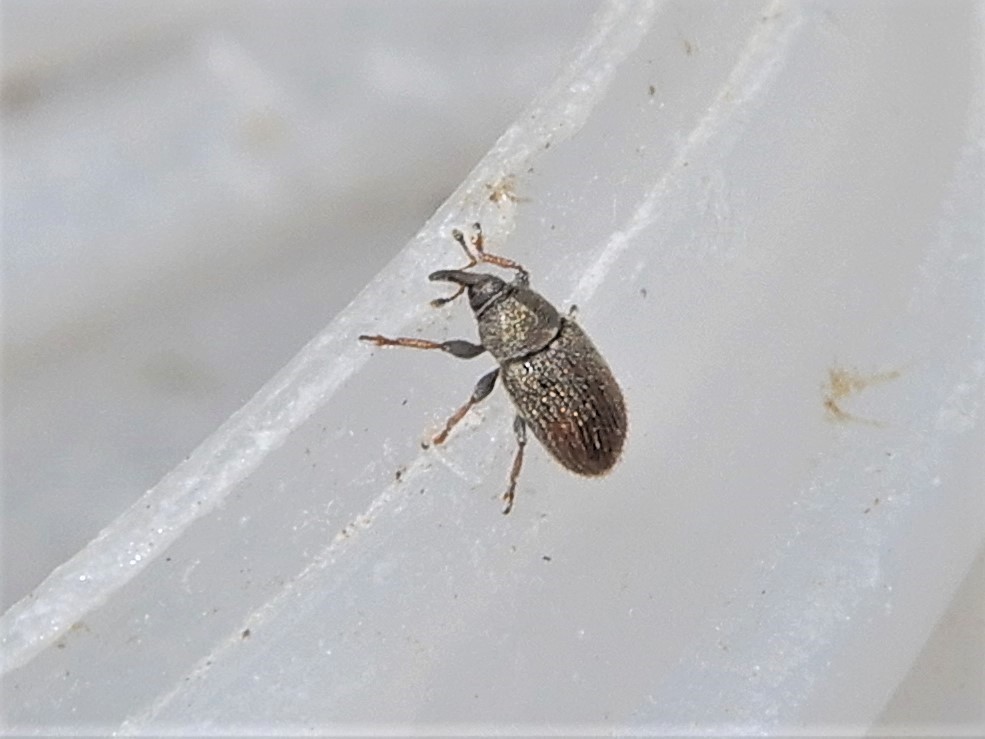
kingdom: Animalia
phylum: Arthropoda
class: Insecta
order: Coleoptera
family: Curculionidae
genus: Mecinus
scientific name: Mecinus pascuorum
